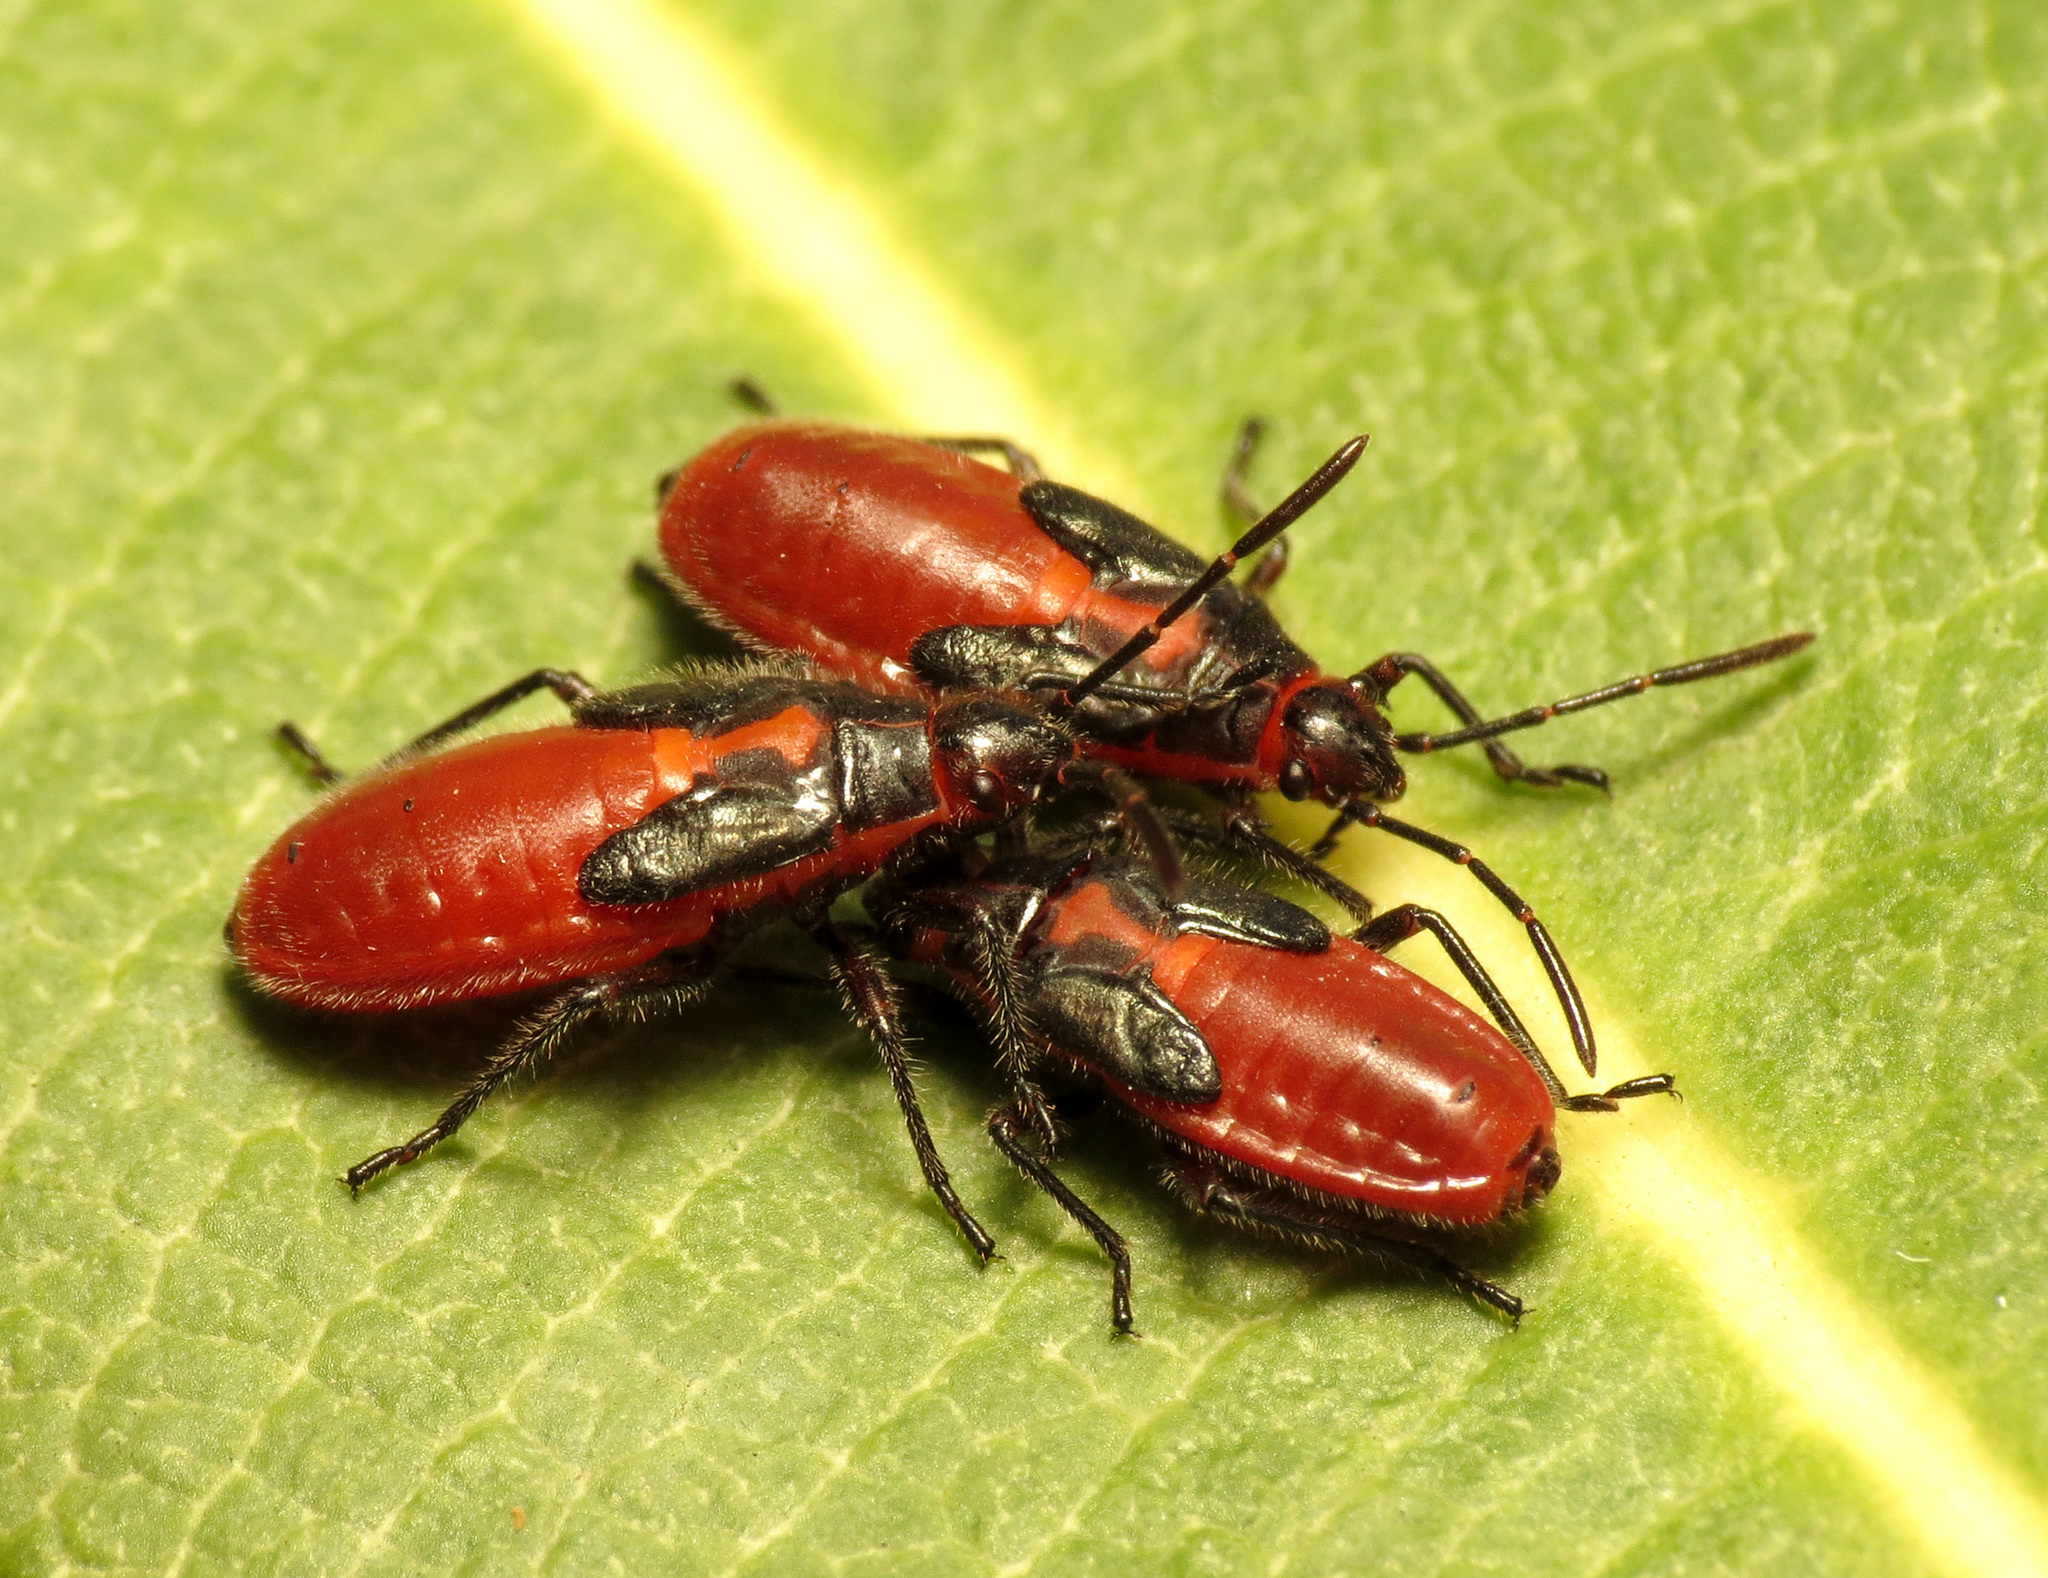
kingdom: Animalia
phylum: Arthropoda
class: Insecta
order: Hemiptera
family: Lygaeidae
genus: Caenocoris
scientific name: Caenocoris nerii
